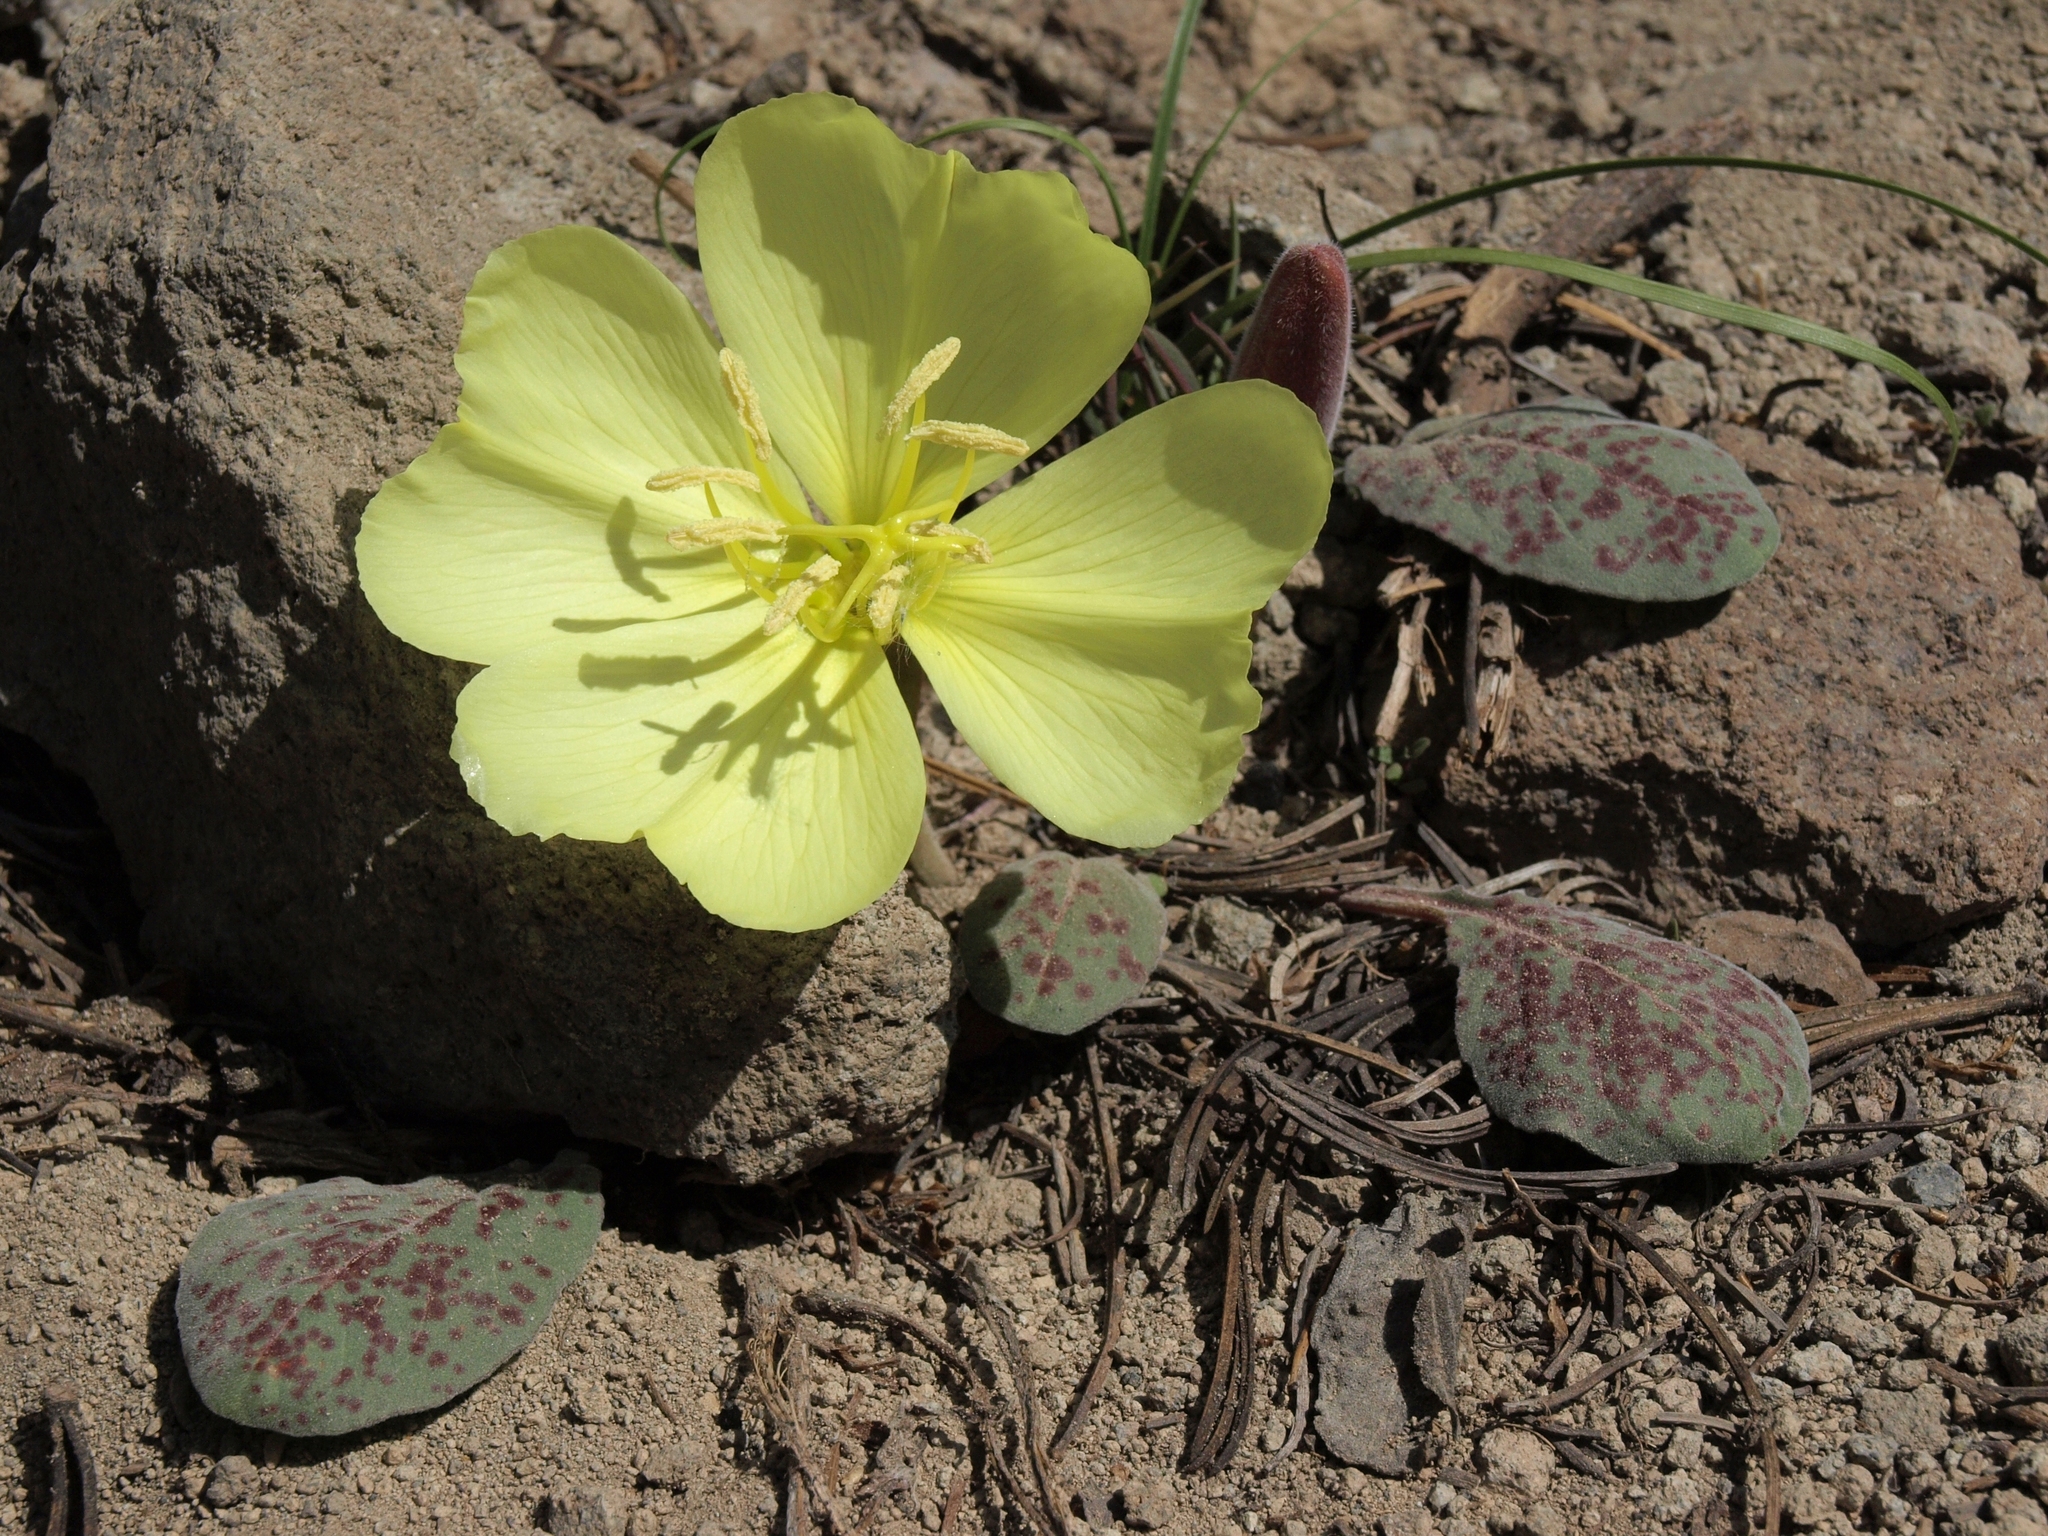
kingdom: Plantae
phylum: Tracheophyta
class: Magnoliopsida
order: Myrtales
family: Onagraceae
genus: Oenothera
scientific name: Oenothera xylocarpa
